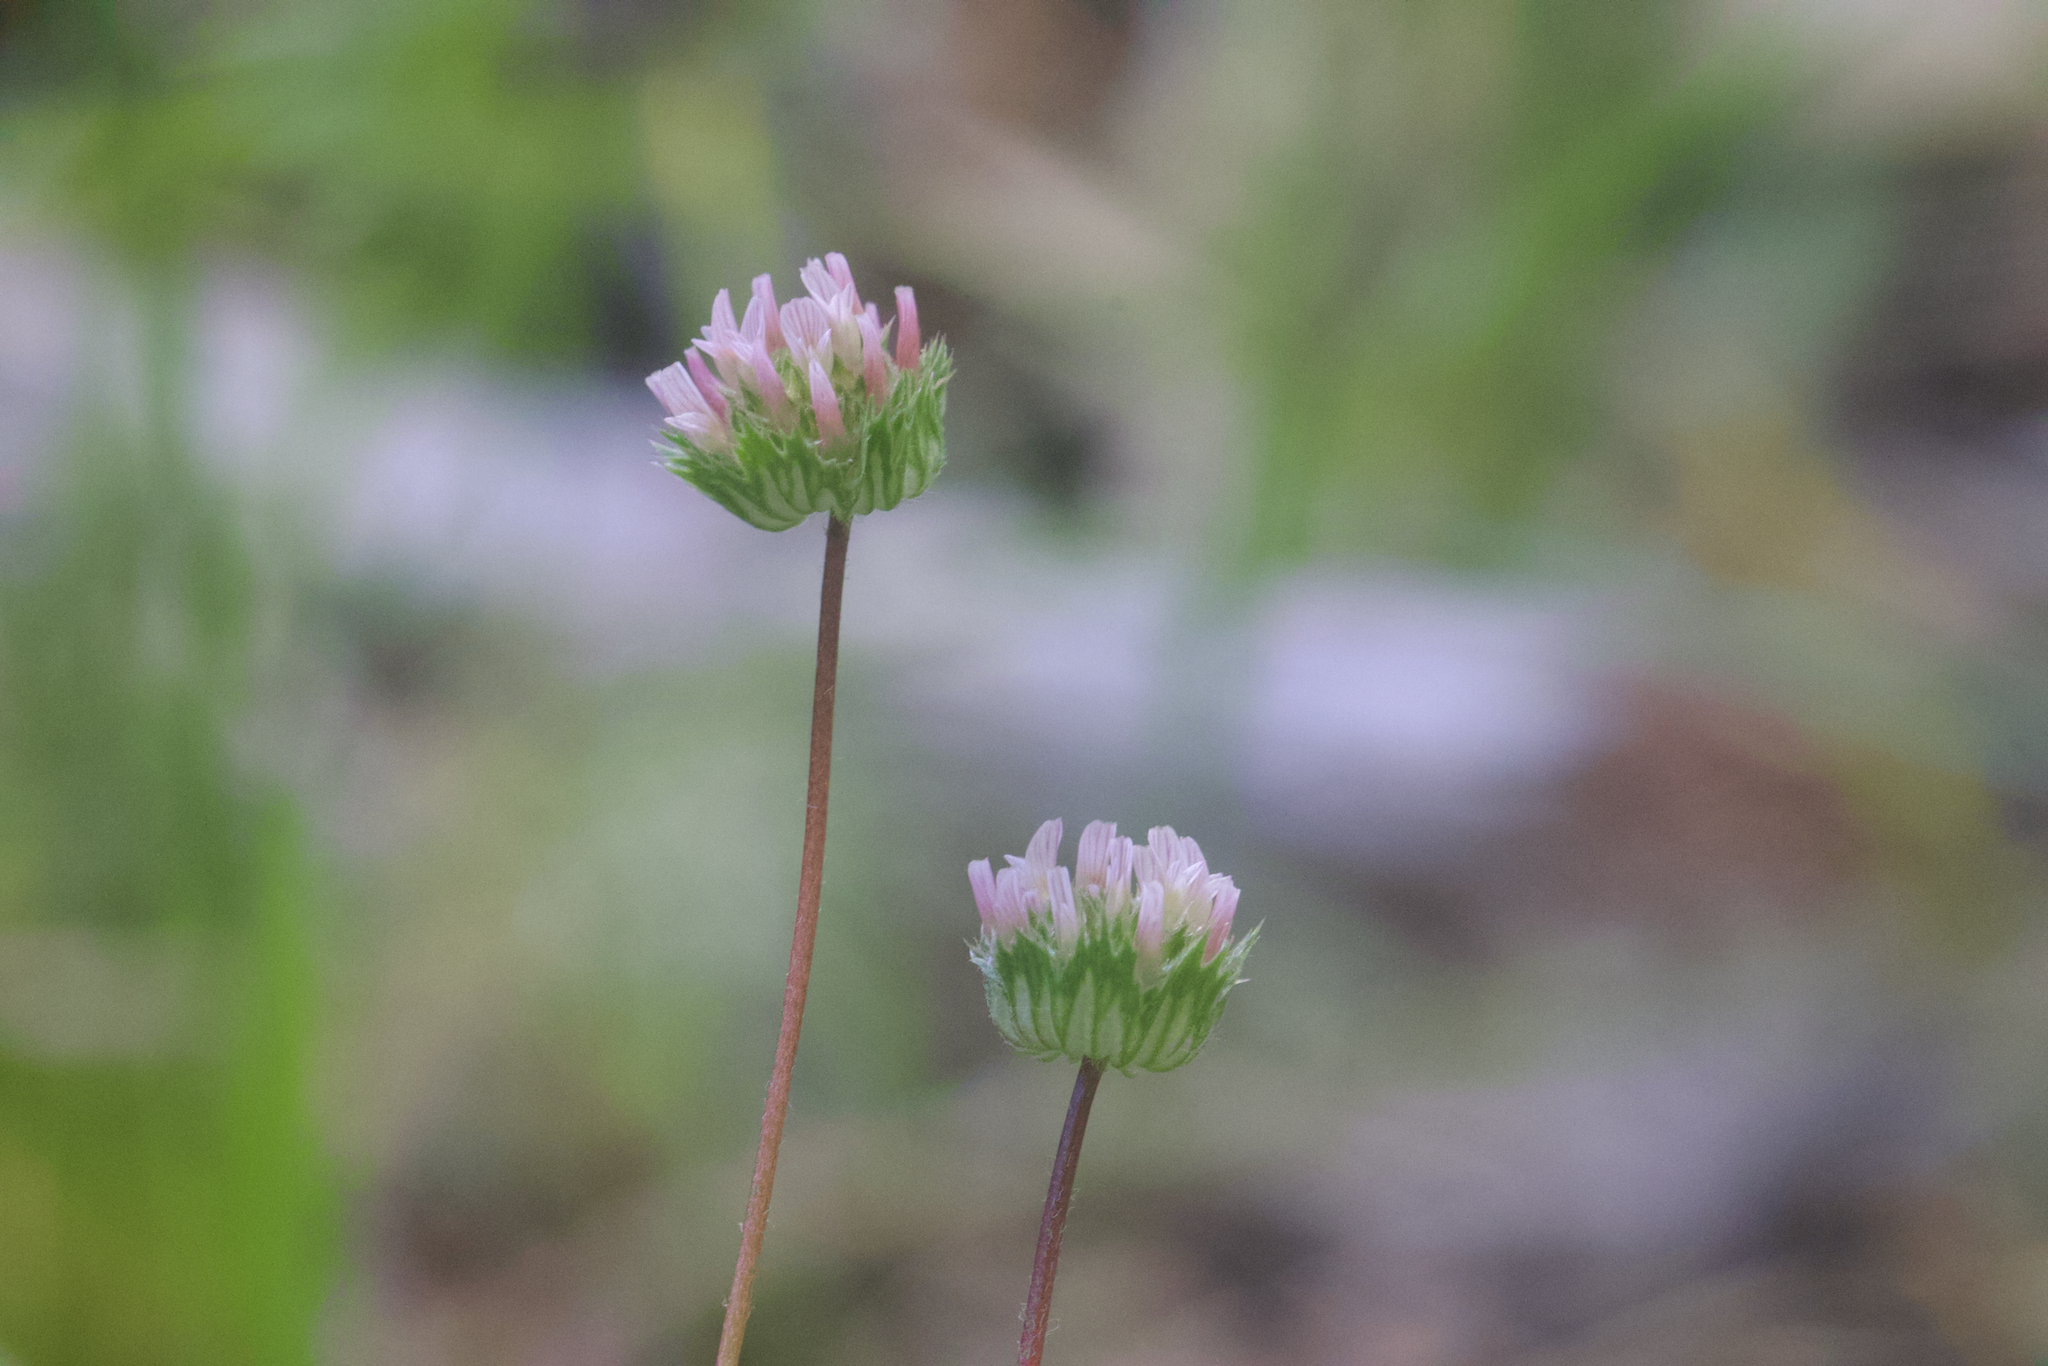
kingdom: Plantae
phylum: Tracheophyta
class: Magnoliopsida
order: Fabales
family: Fabaceae
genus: Trifolium
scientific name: Trifolium microdon
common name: Thimble clover
